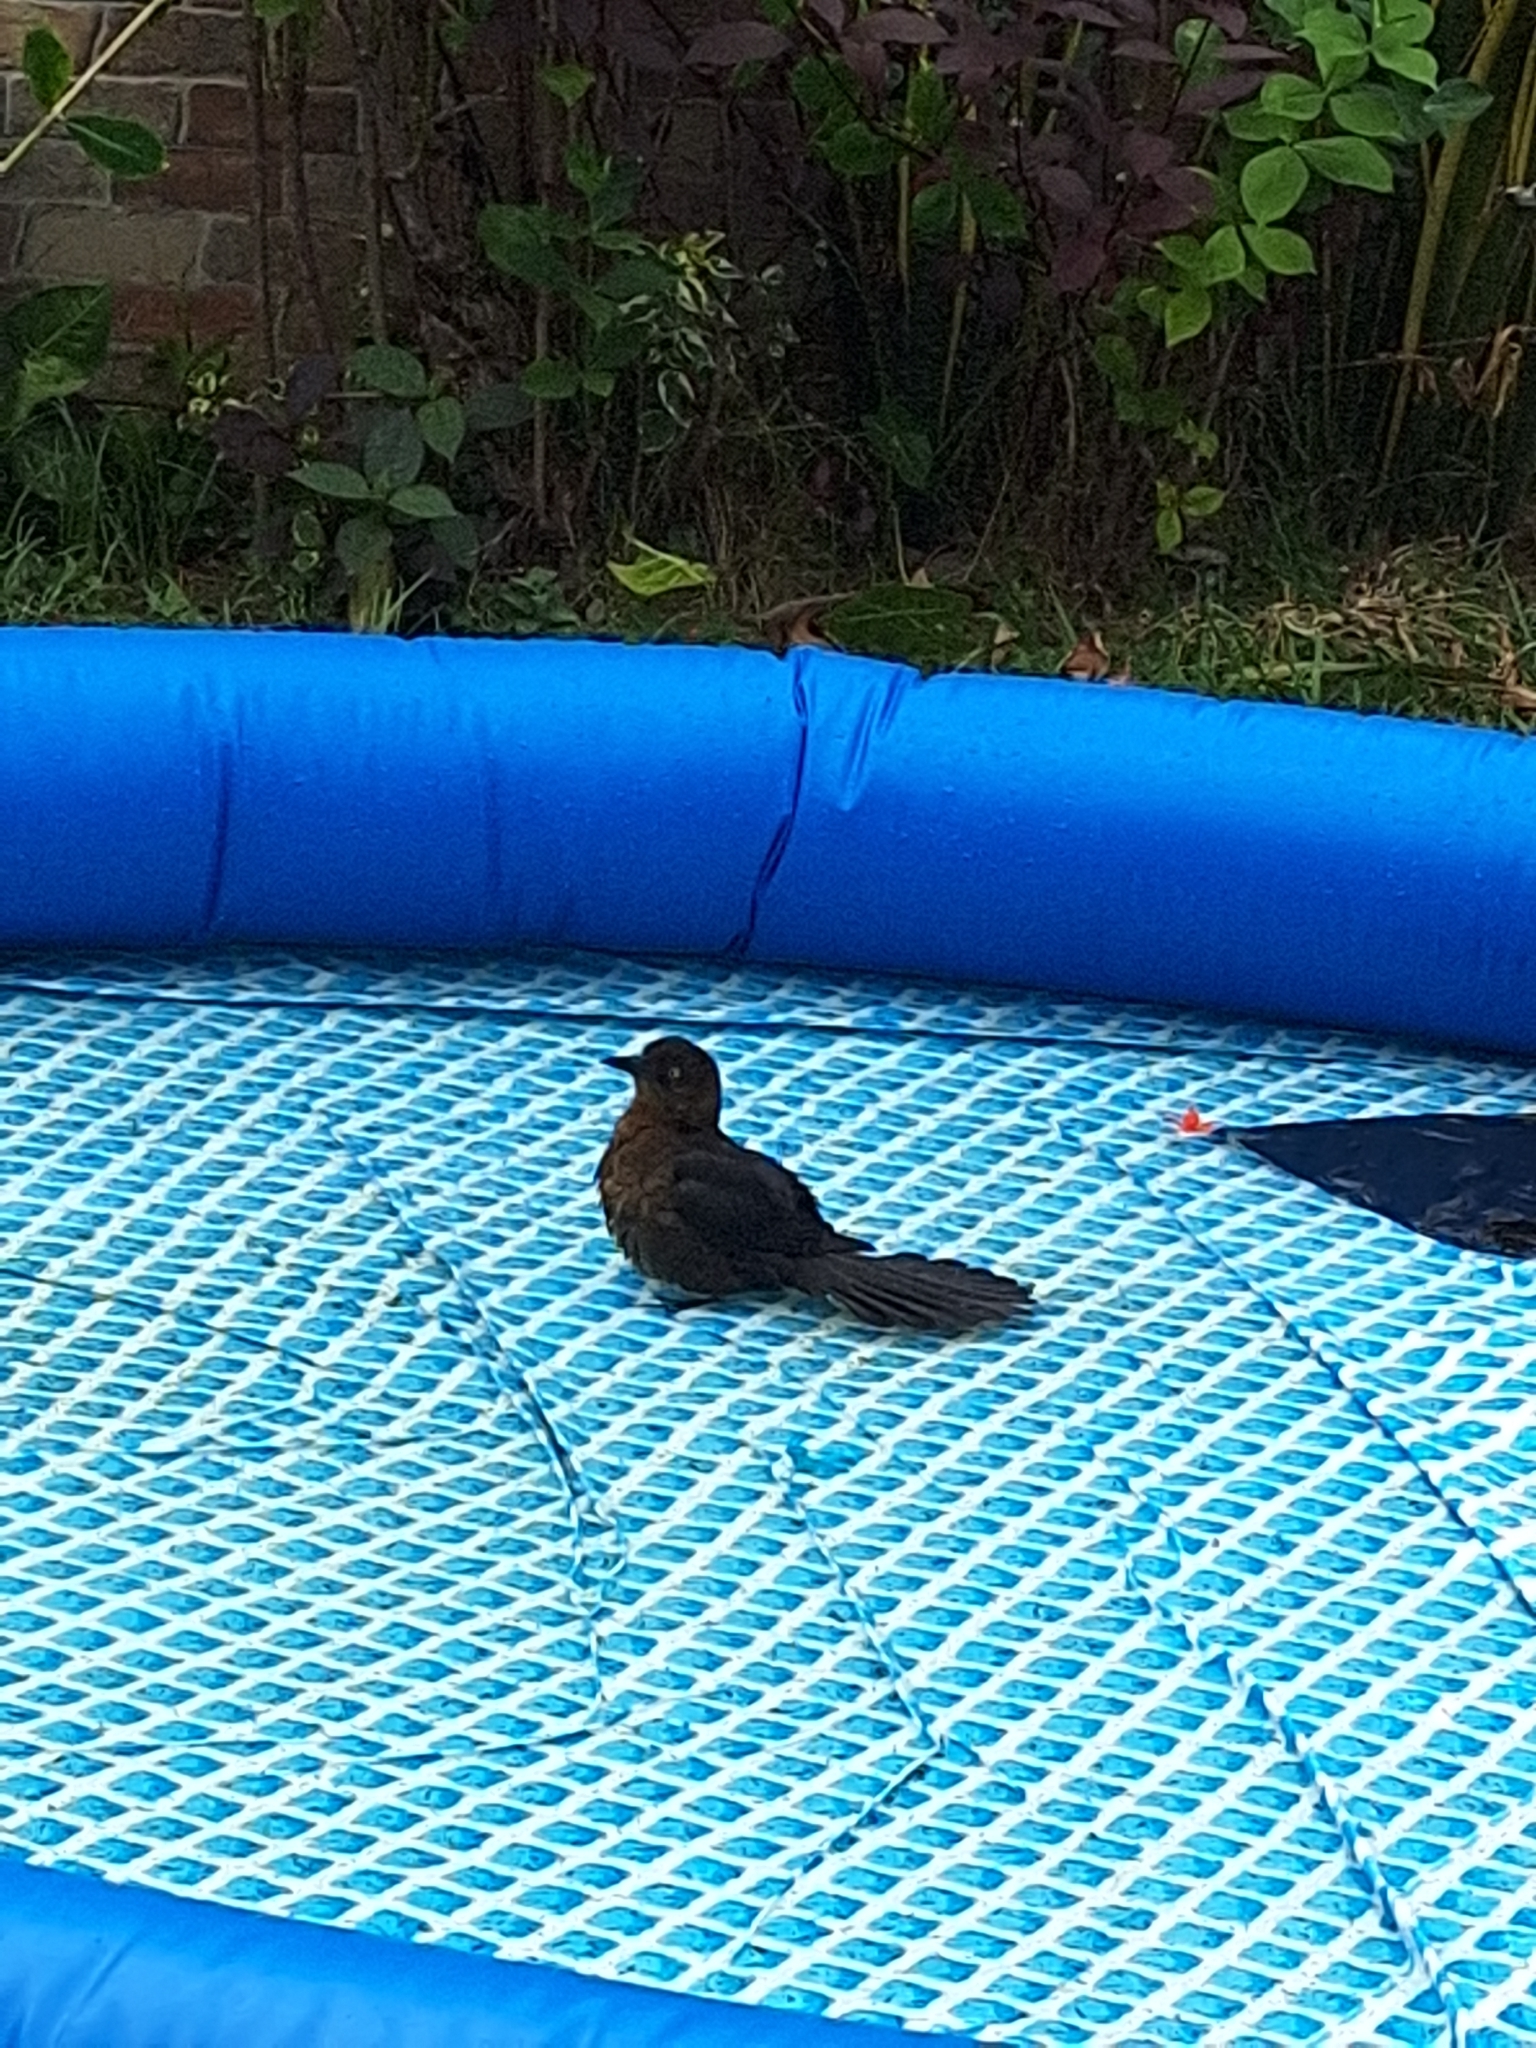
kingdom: Animalia
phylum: Chordata
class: Aves
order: Passeriformes
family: Icteridae
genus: Quiscalus
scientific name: Quiscalus mexicanus
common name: Great-tailed grackle
